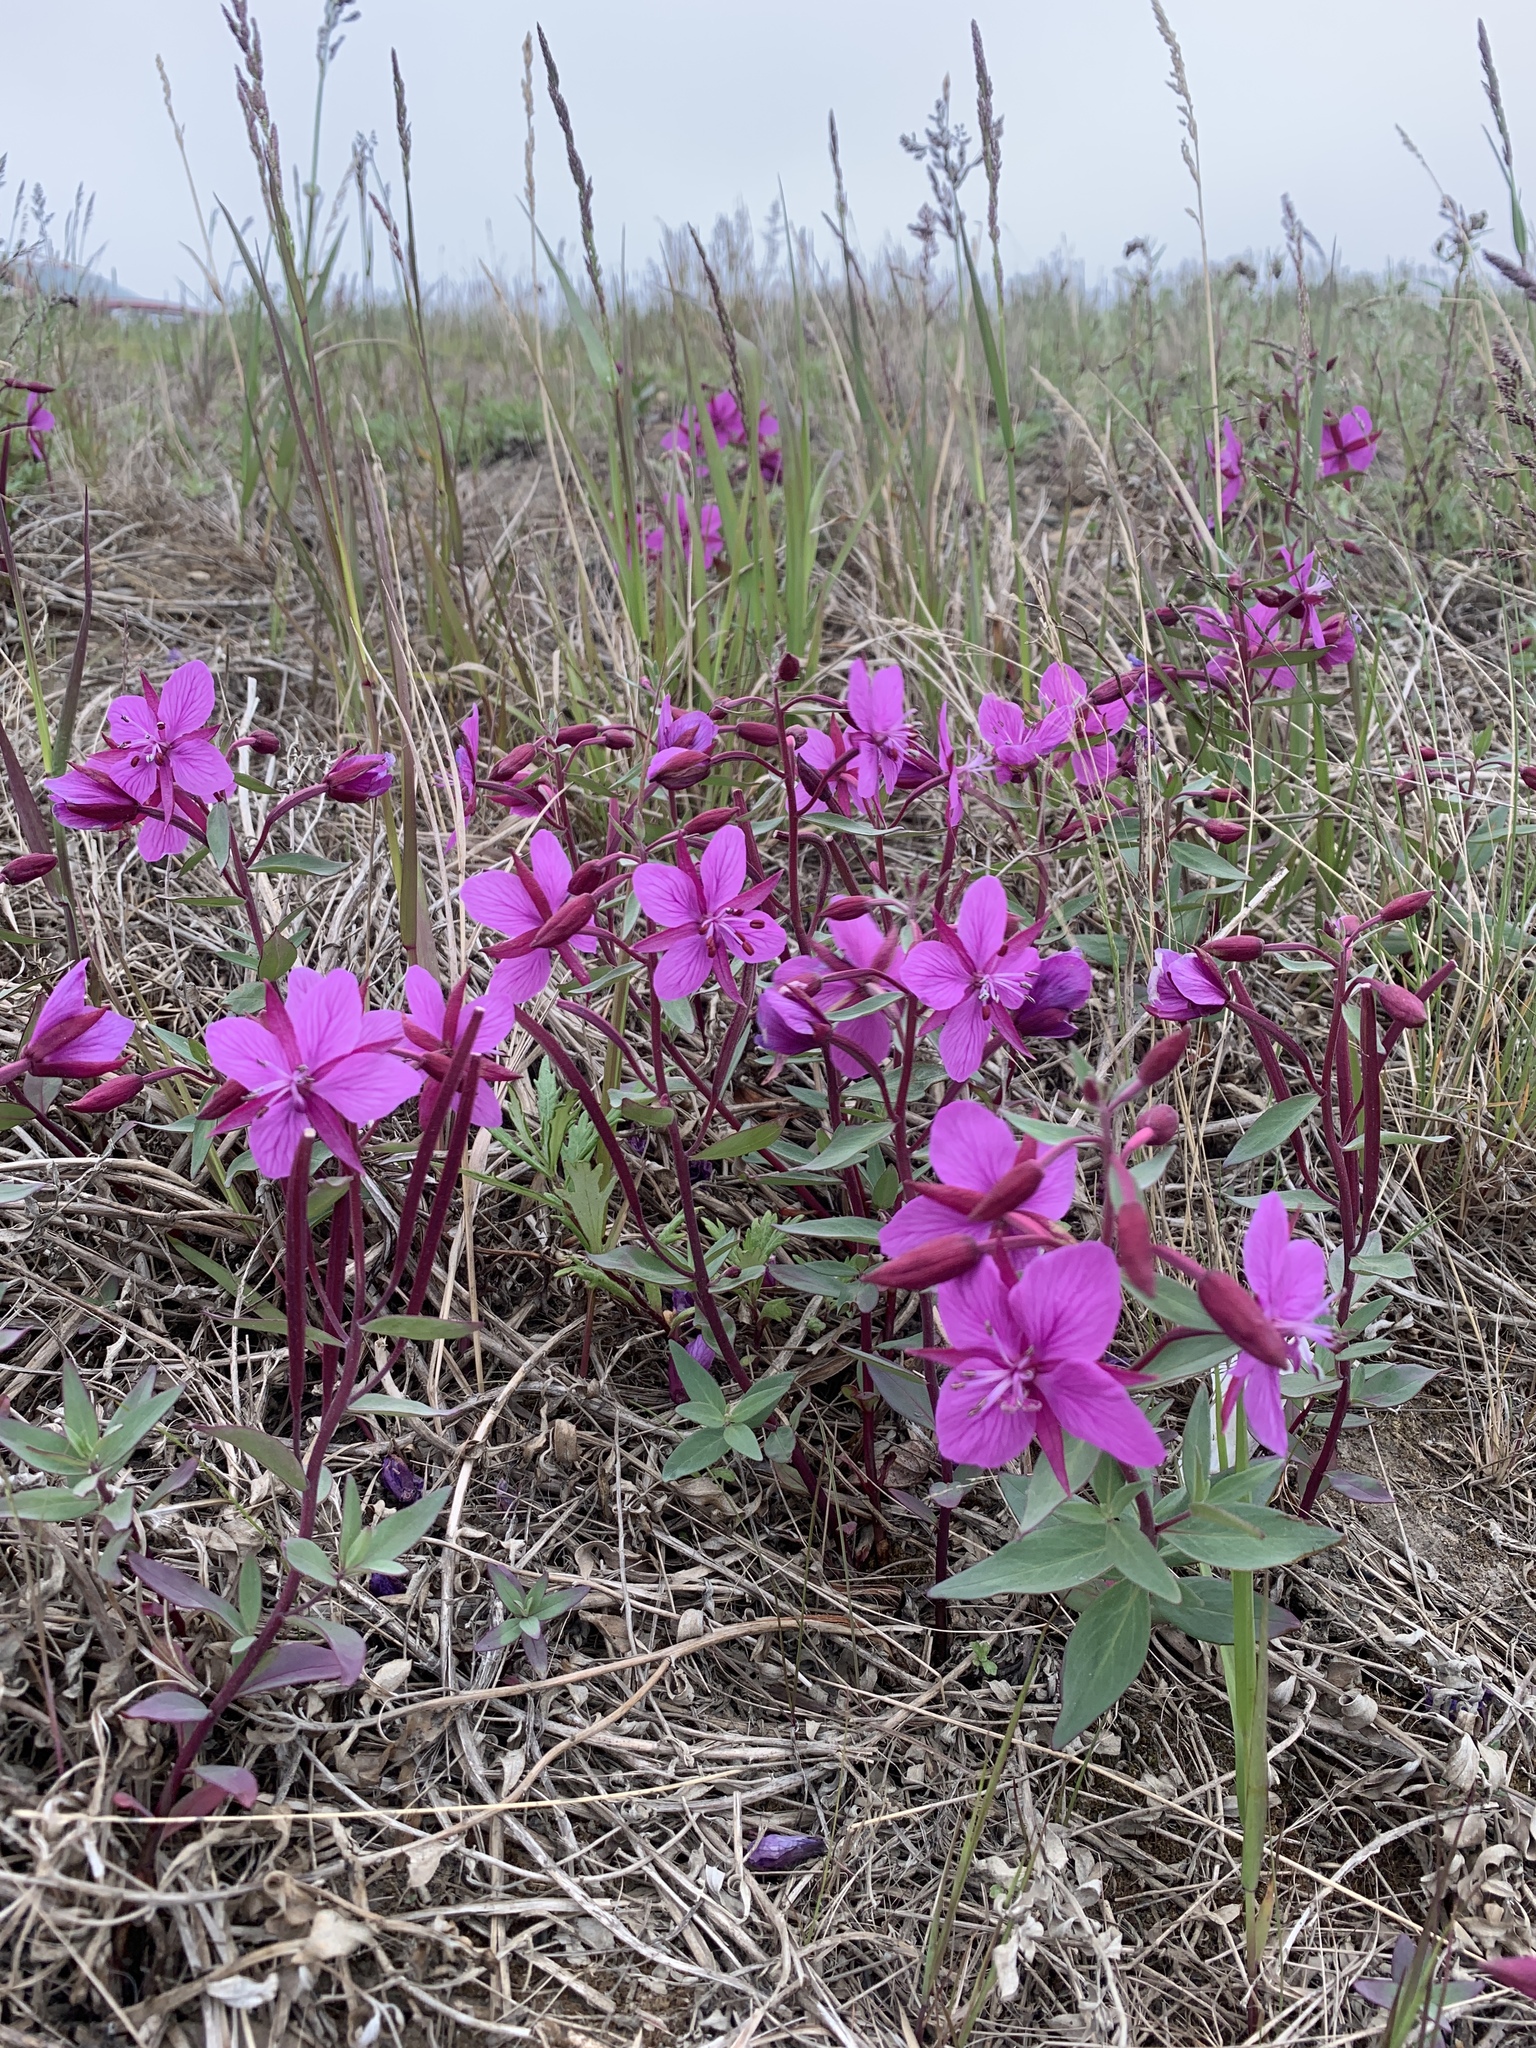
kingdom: Plantae
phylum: Tracheophyta
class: Magnoliopsida
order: Myrtales
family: Onagraceae
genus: Chamaenerion
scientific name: Chamaenerion latifolium
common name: Dwarf fireweed
